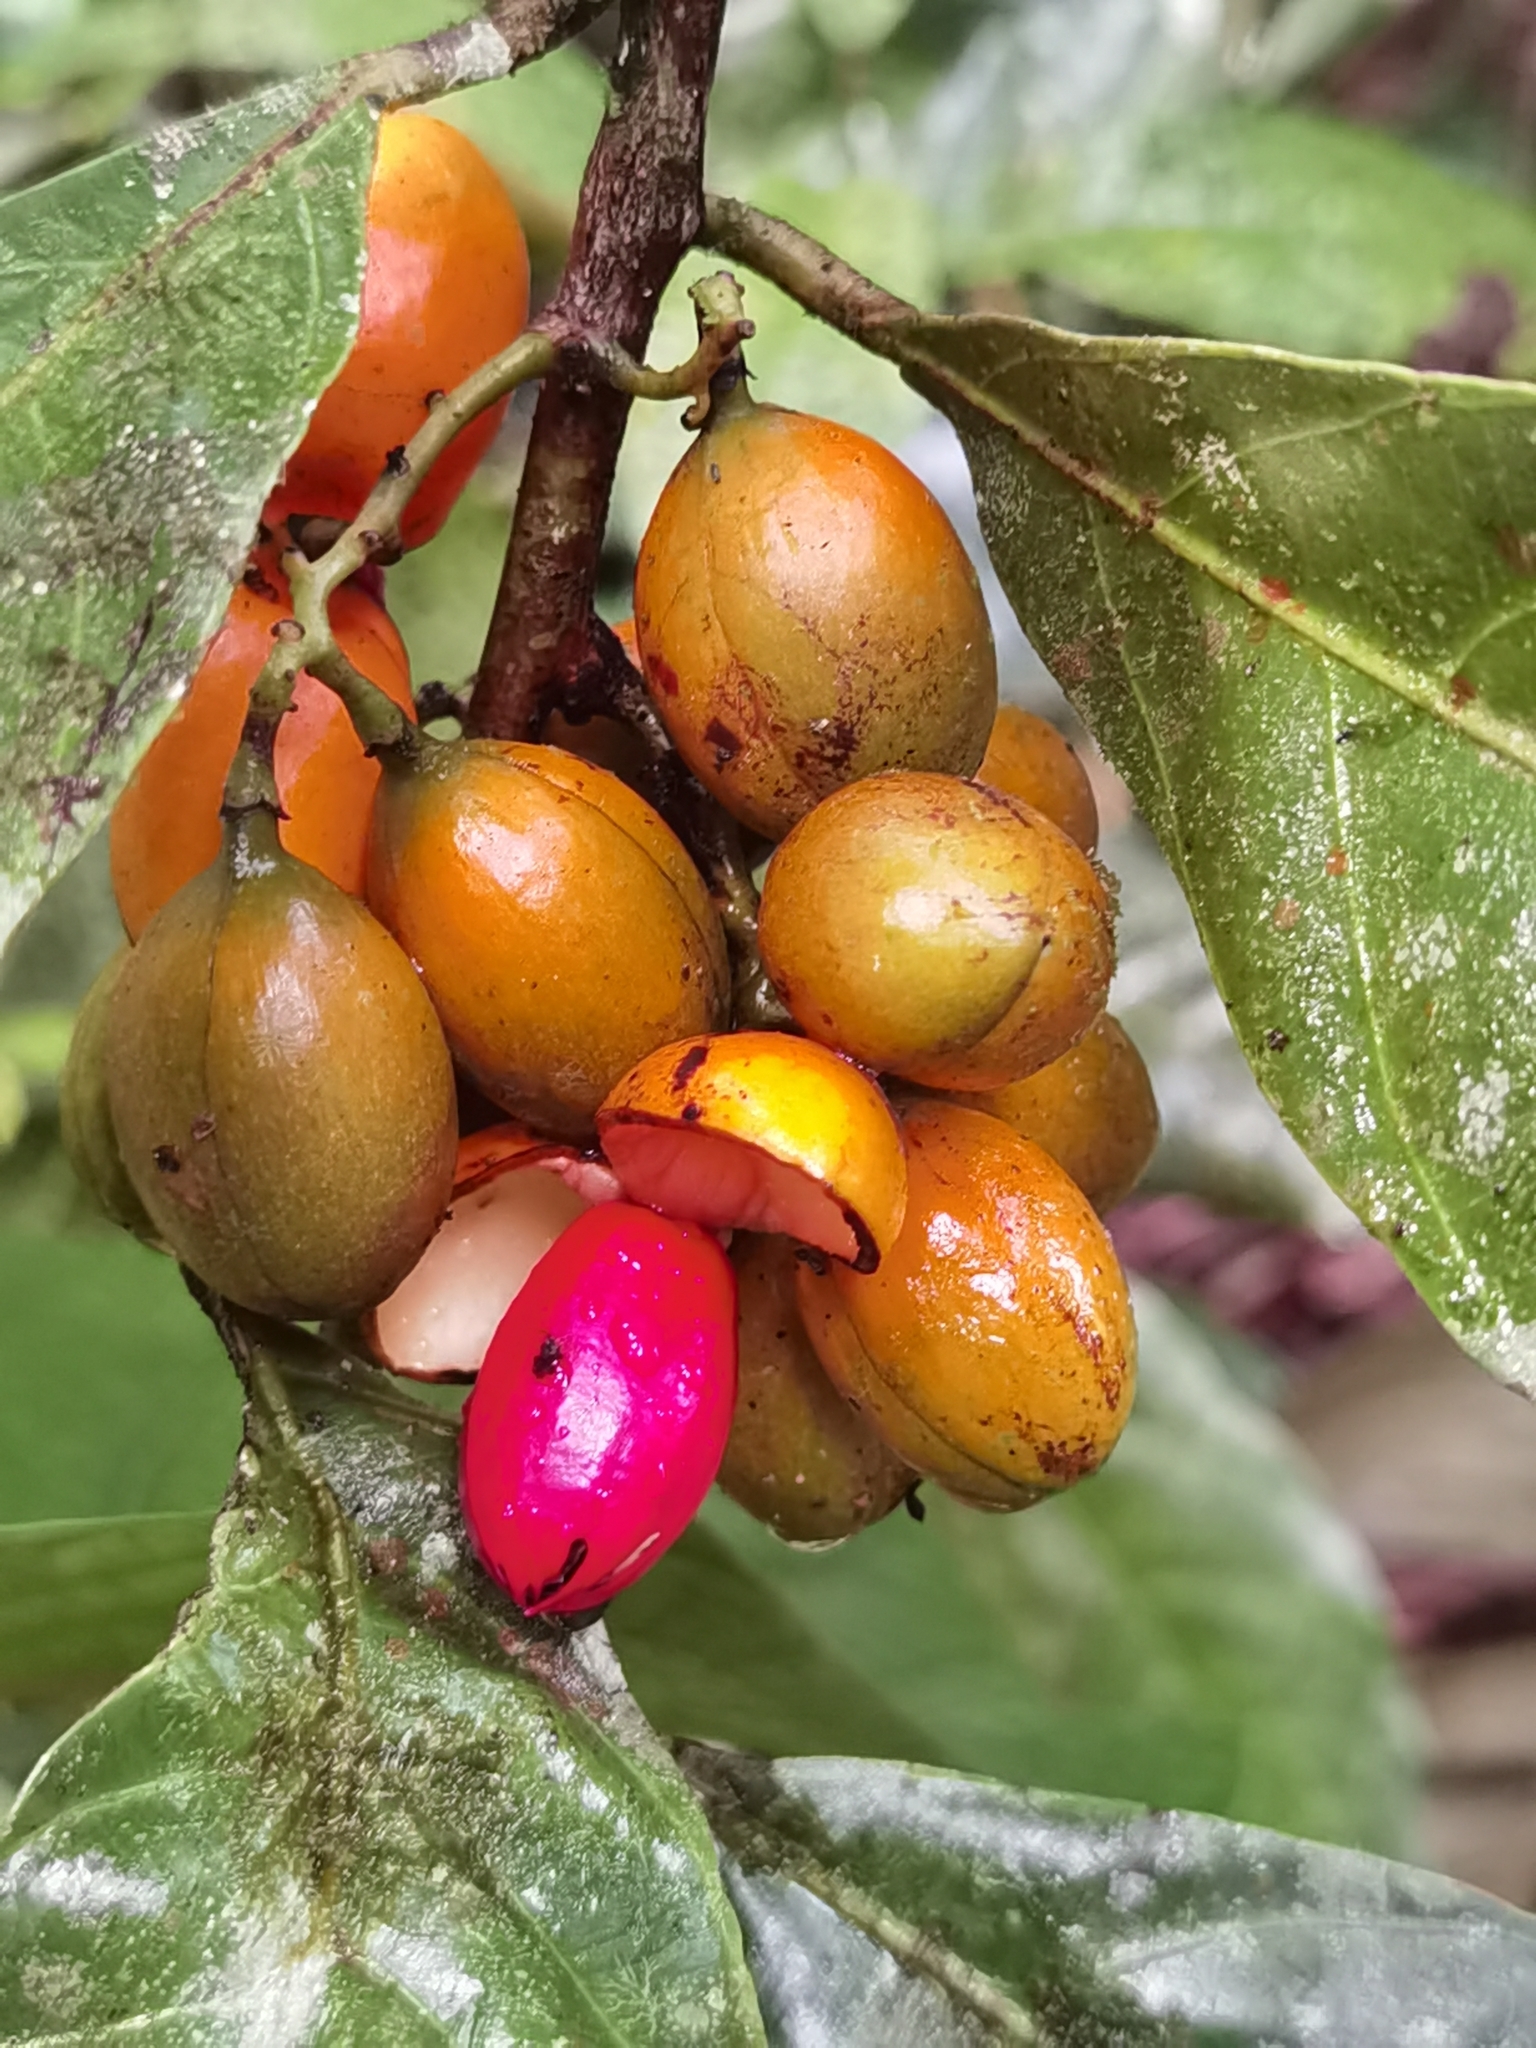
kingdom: Plantae
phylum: Tracheophyta
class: Magnoliopsida
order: Magnoliales
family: Myristicaceae
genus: Compsoneura
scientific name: Compsoneura mexicana
